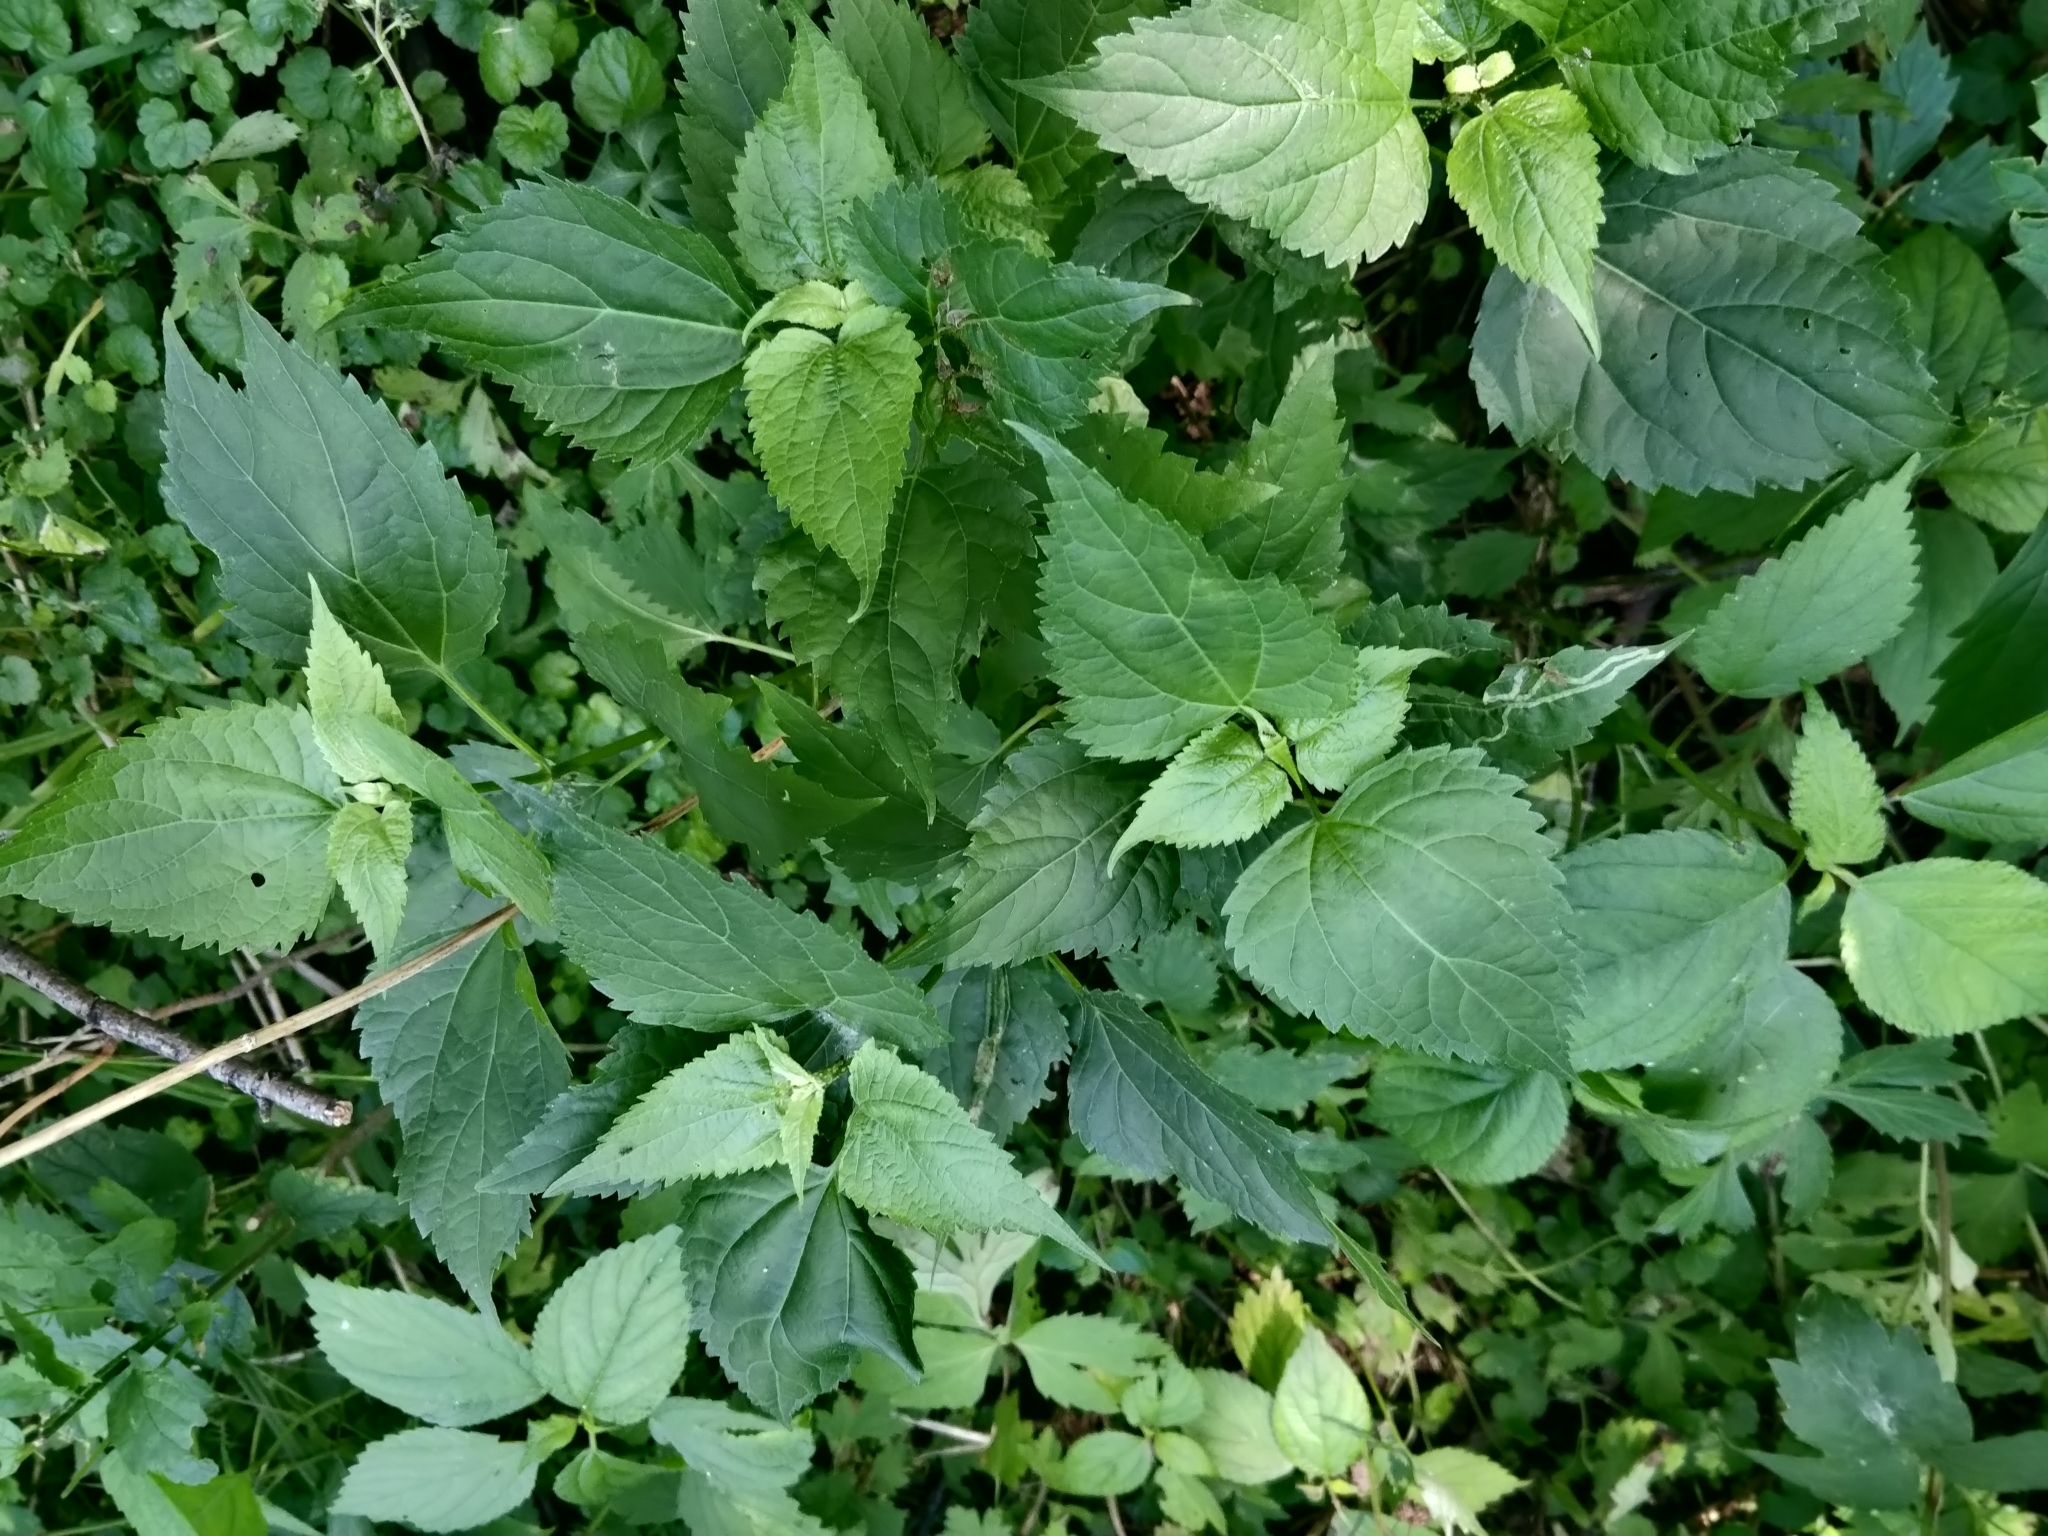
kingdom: Plantae
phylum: Tracheophyta
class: Magnoliopsida
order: Asterales
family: Asteraceae
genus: Ageratina
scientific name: Ageratina altissima
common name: White snakeroot
